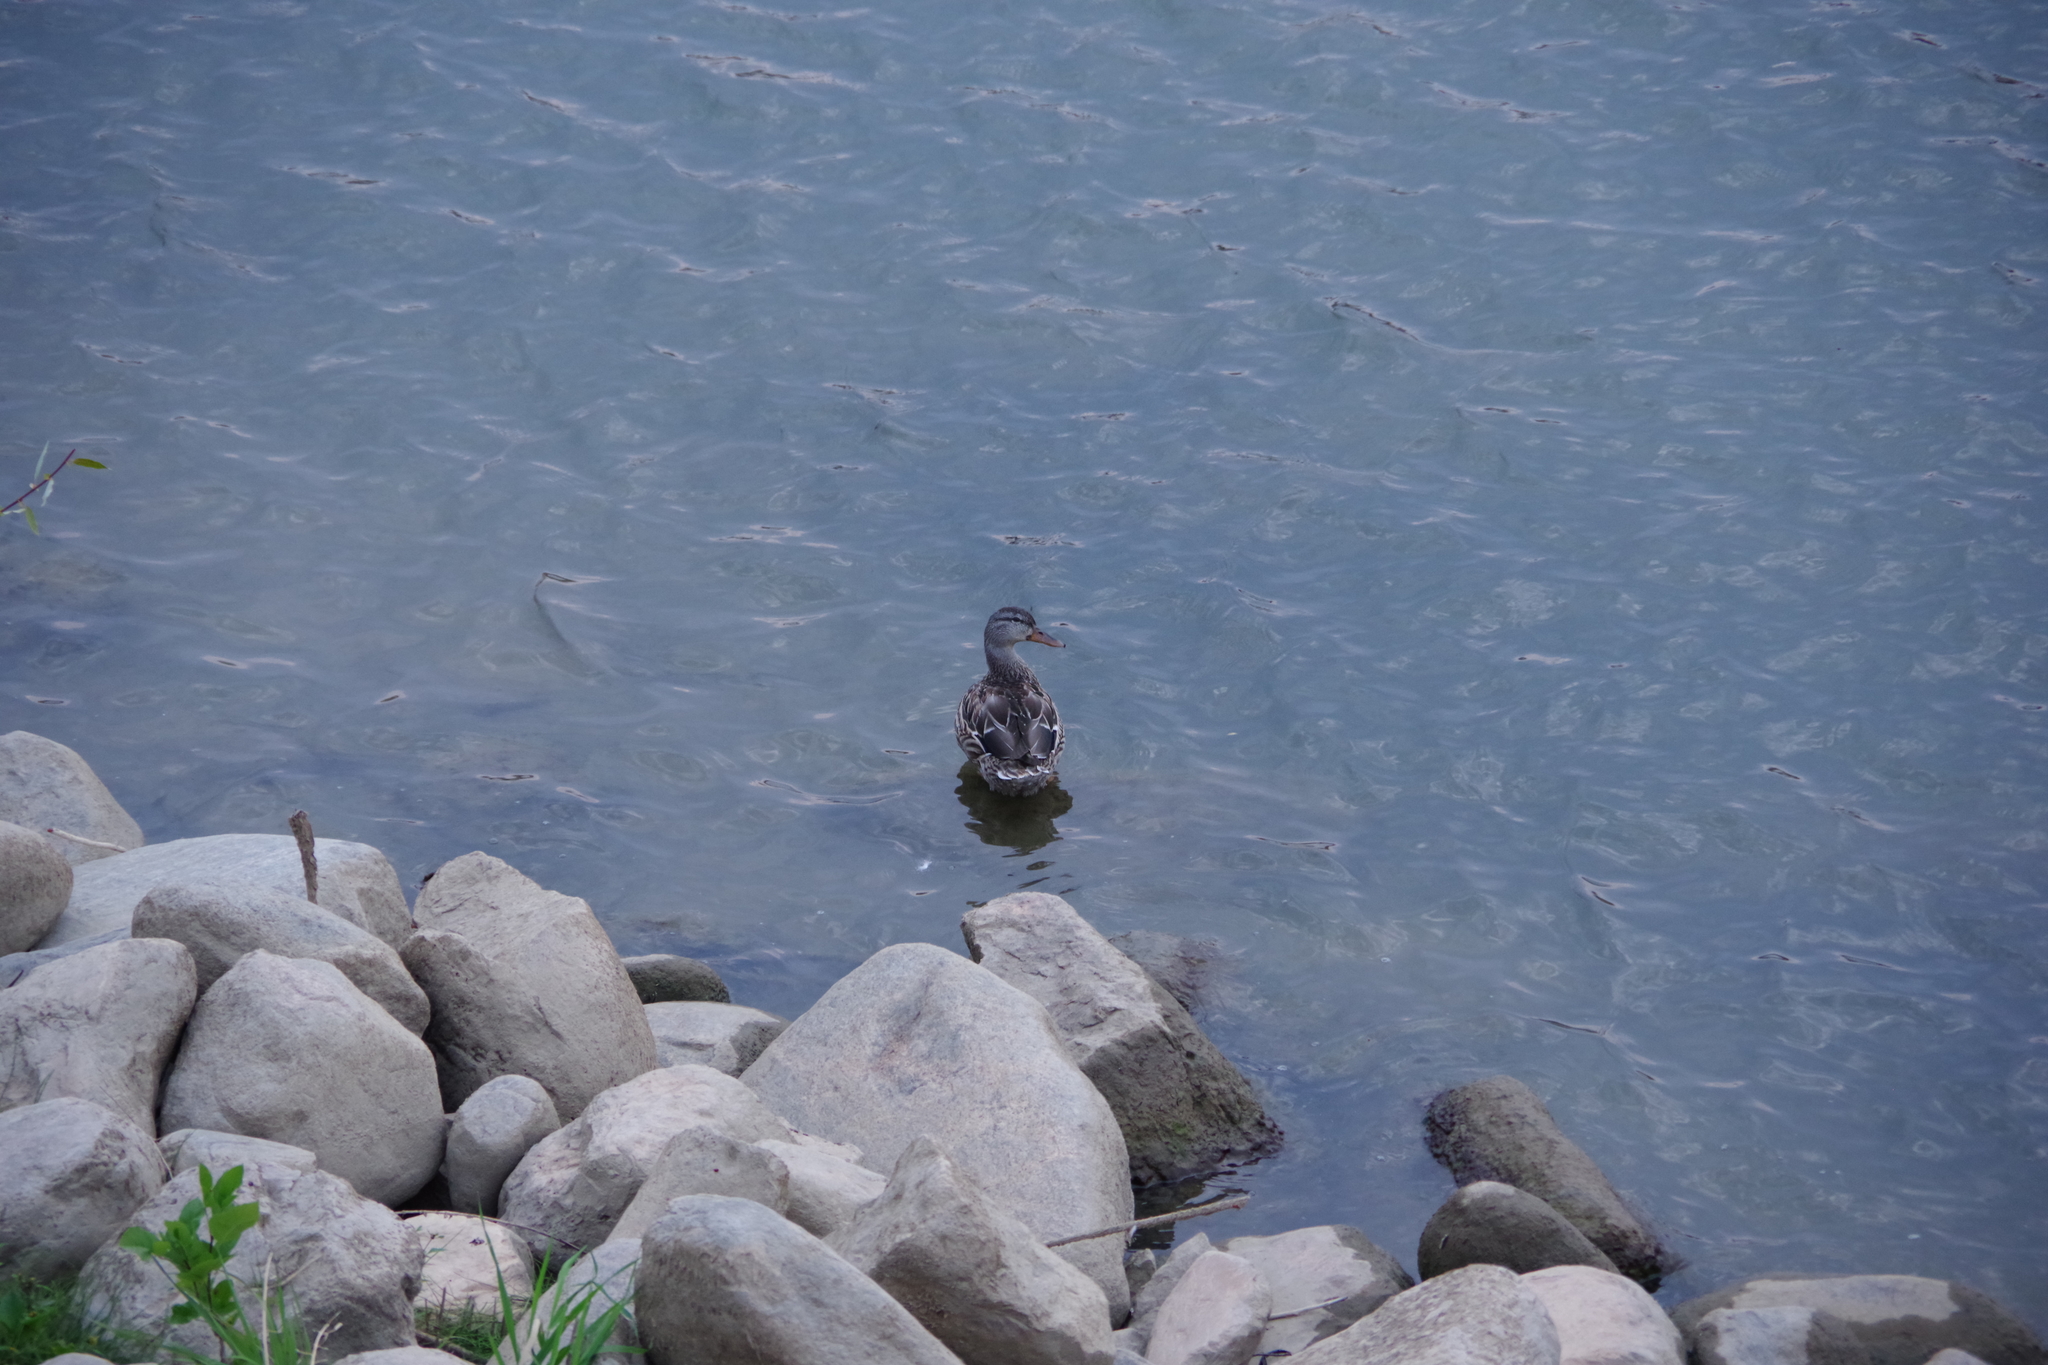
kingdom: Animalia
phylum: Chordata
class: Aves
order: Anseriformes
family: Anatidae
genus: Anas
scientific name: Anas platyrhynchos
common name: Mallard
